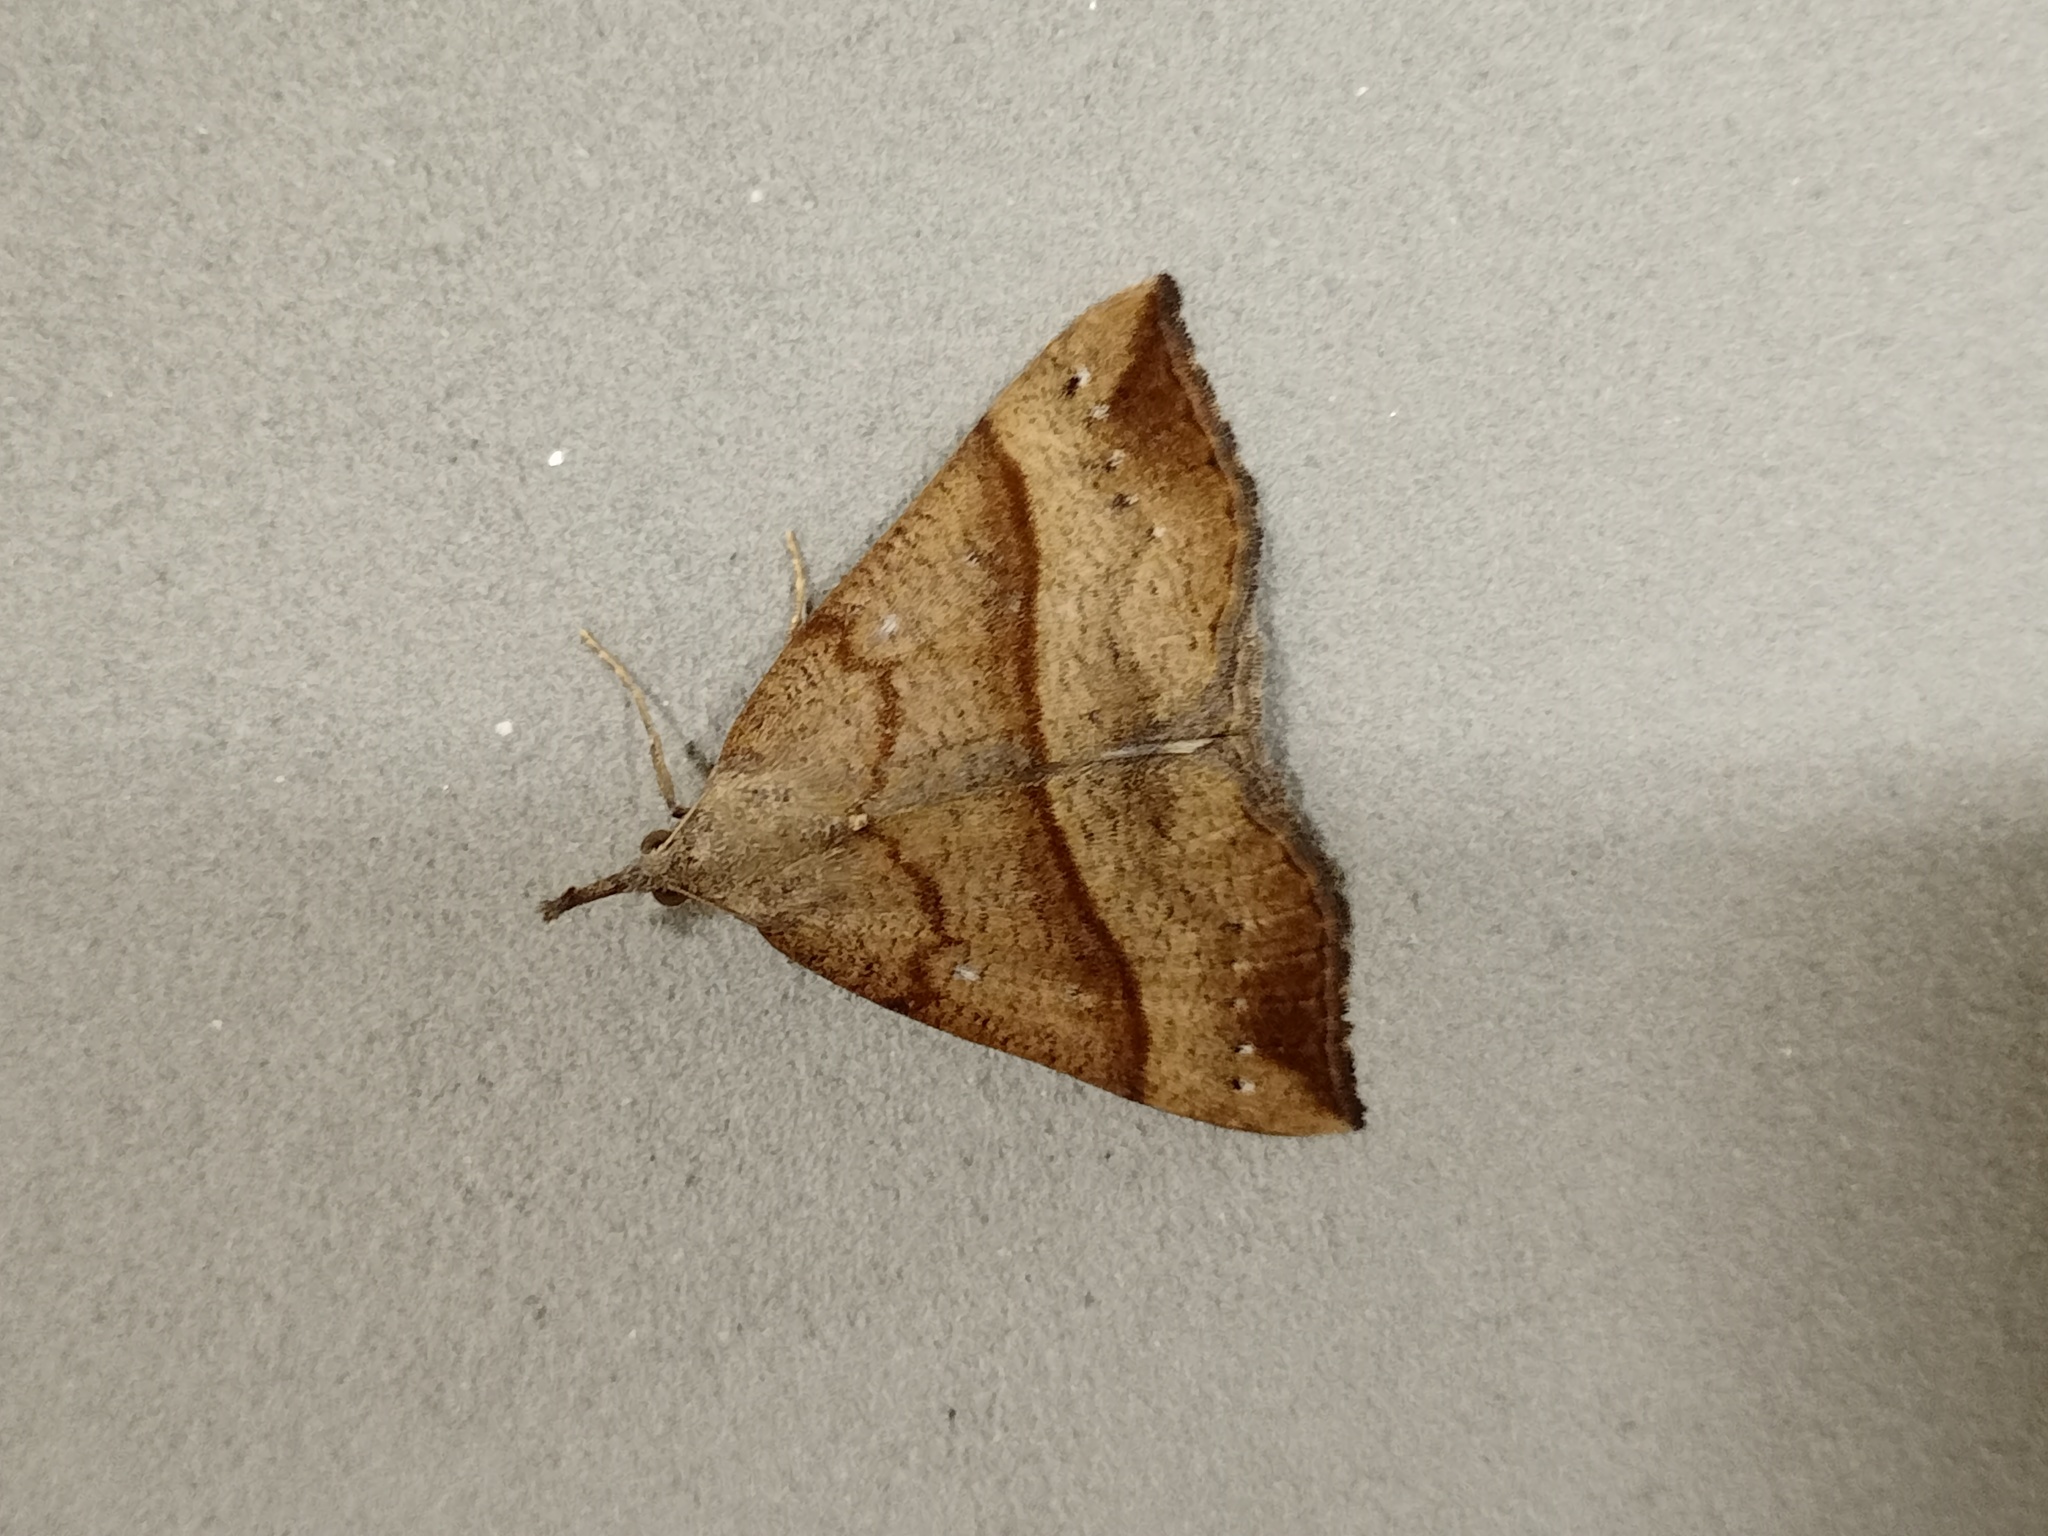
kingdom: Animalia
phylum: Arthropoda
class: Insecta
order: Lepidoptera
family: Erebidae
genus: Hypena
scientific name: Hypena proboscidalis
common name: Snout
